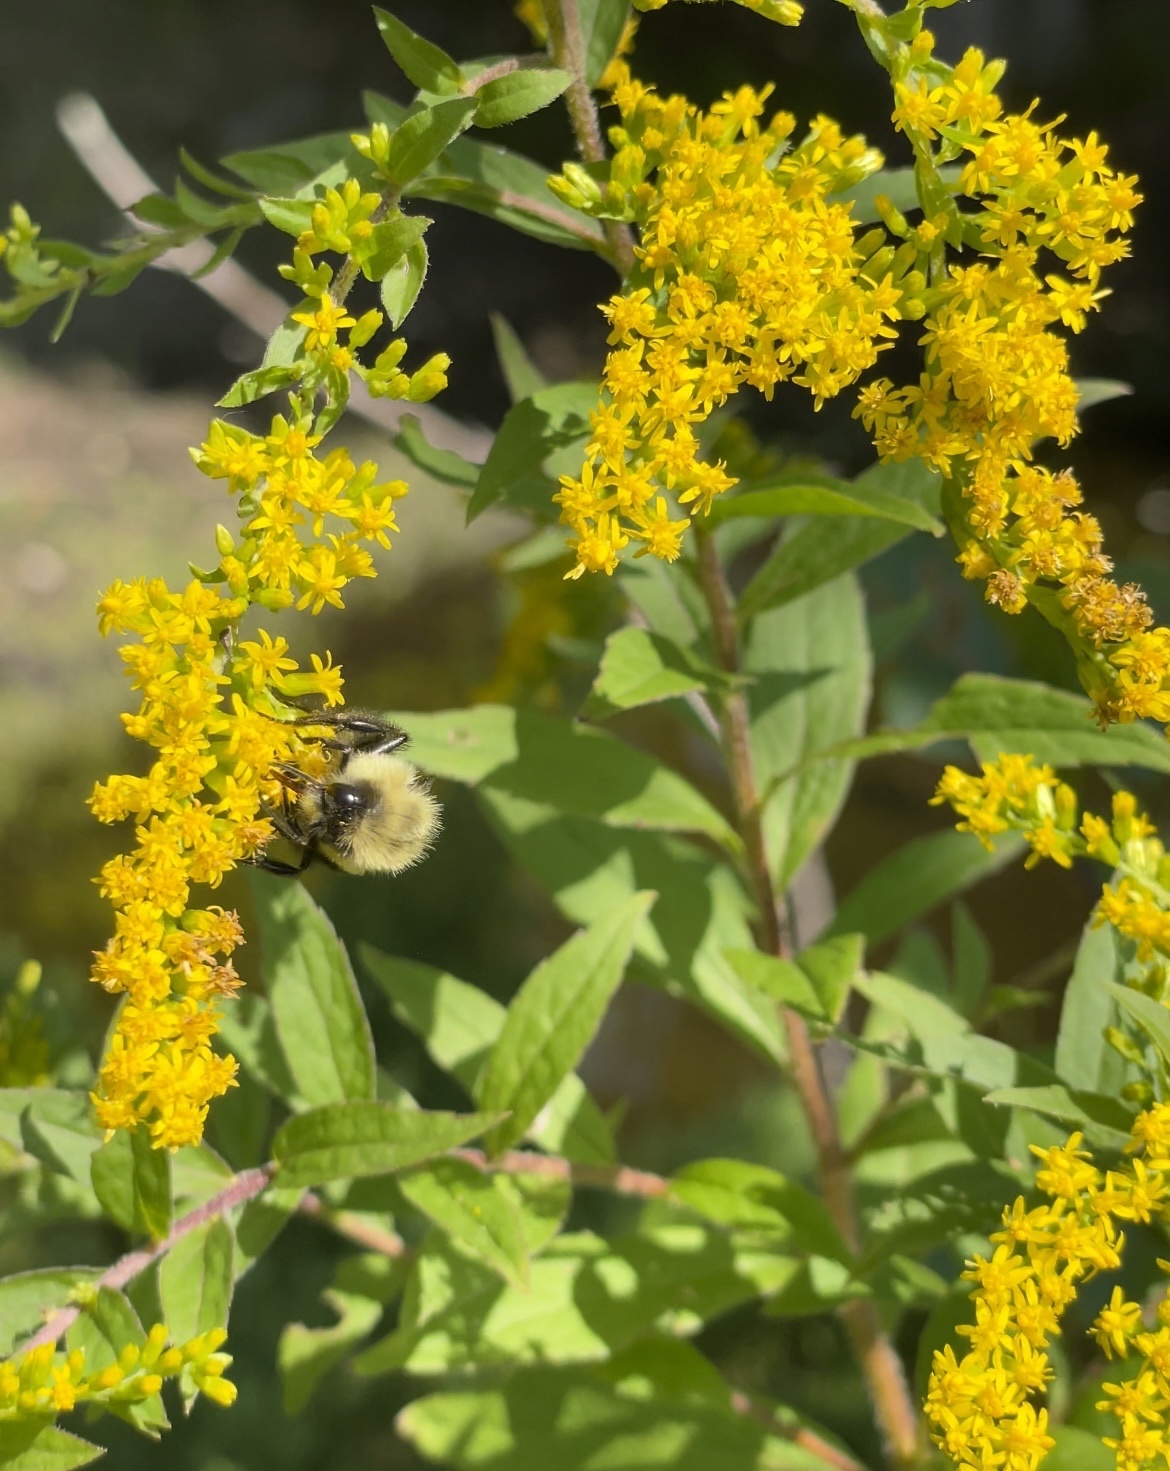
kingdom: Animalia
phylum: Arthropoda
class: Insecta
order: Hymenoptera
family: Apidae
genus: Bombus
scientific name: Bombus impatiens
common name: Common eastern bumble bee
